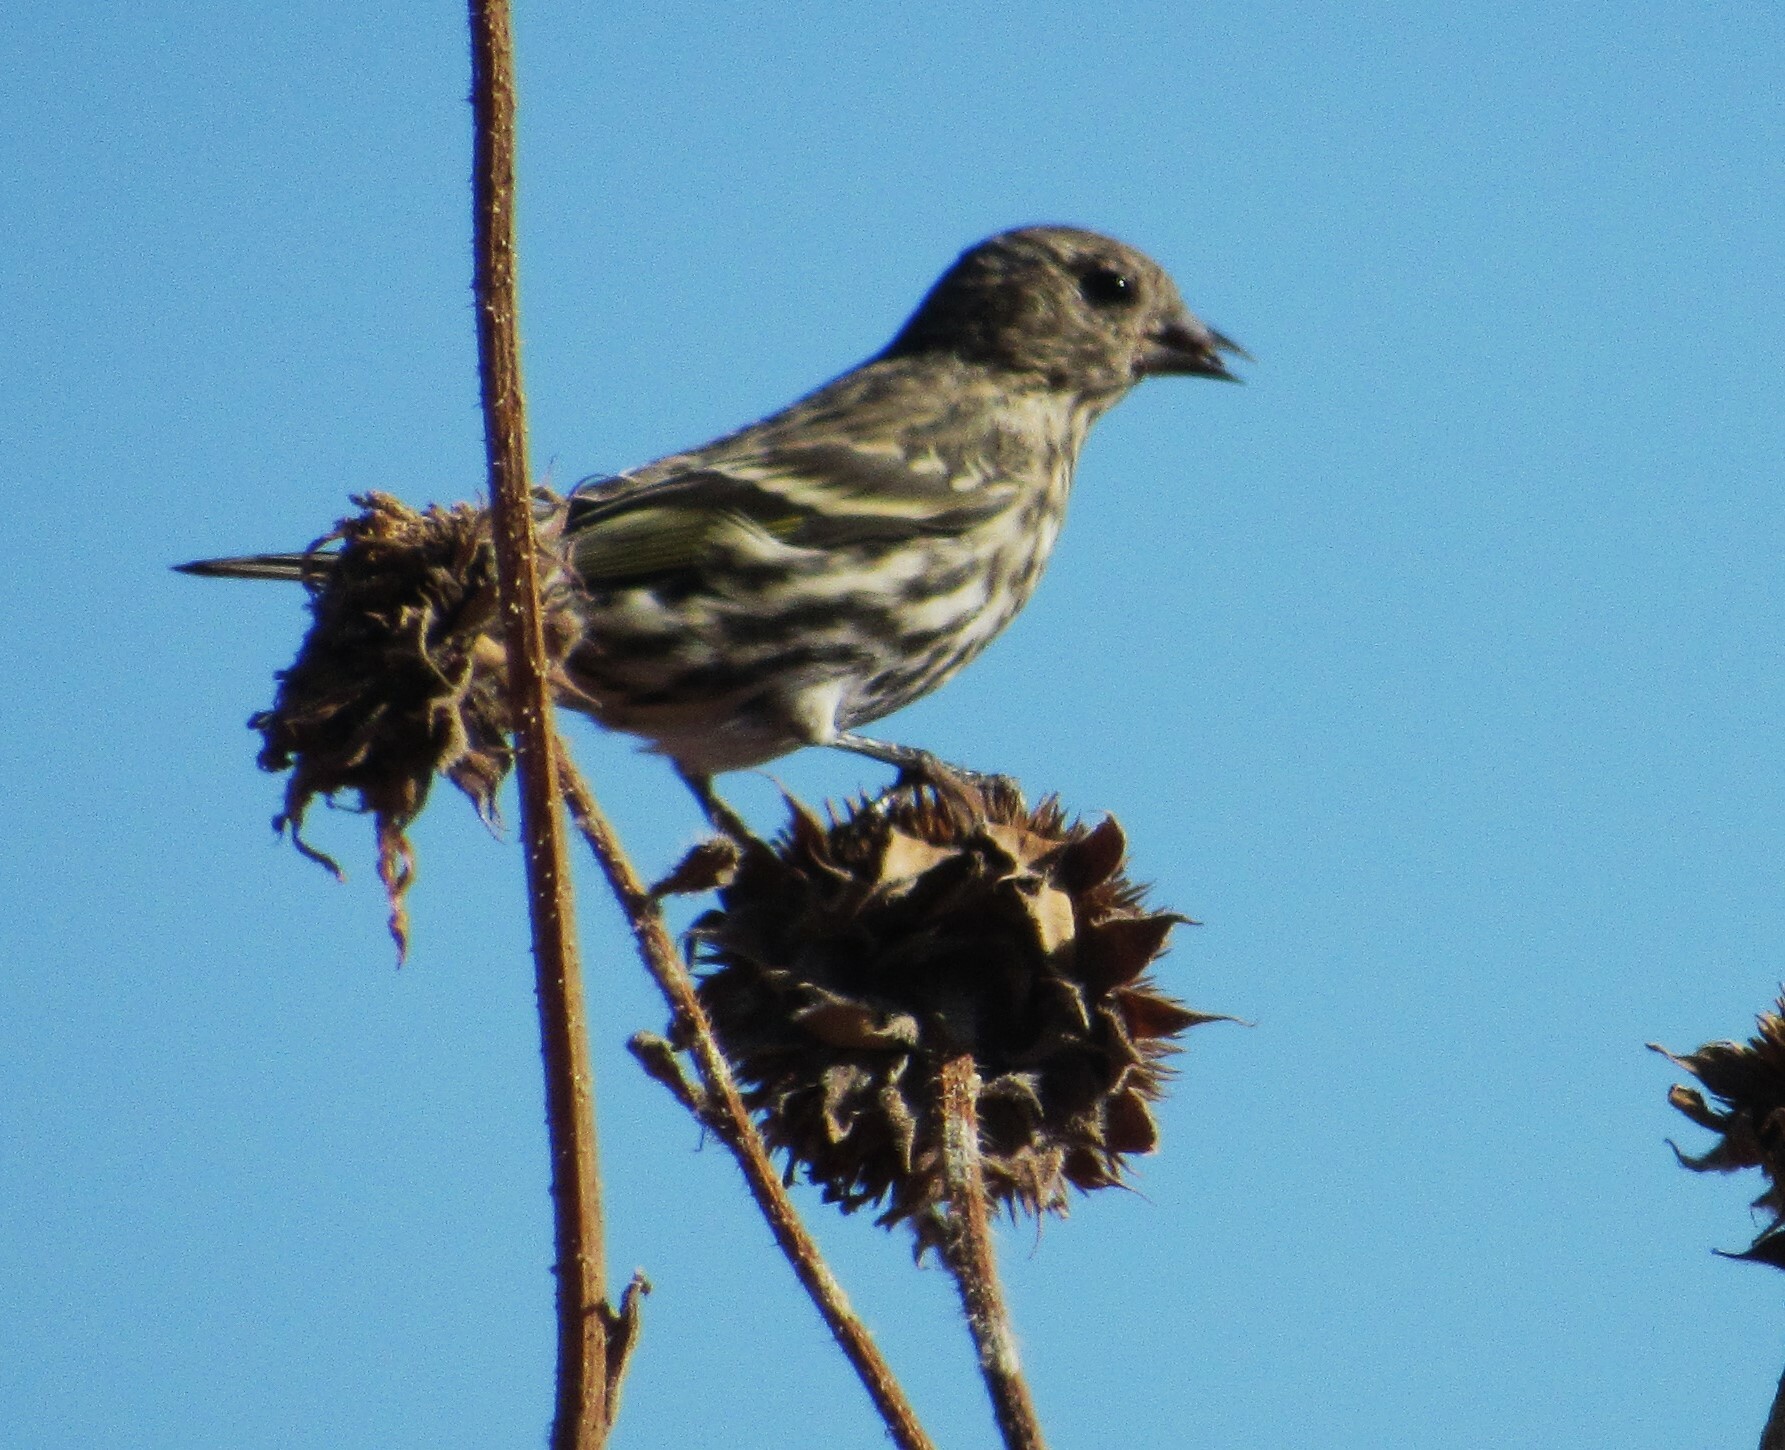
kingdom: Animalia
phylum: Chordata
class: Aves
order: Passeriformes
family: Fringillidae
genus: Spinus
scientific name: Spinus pinus
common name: Pine siskin
